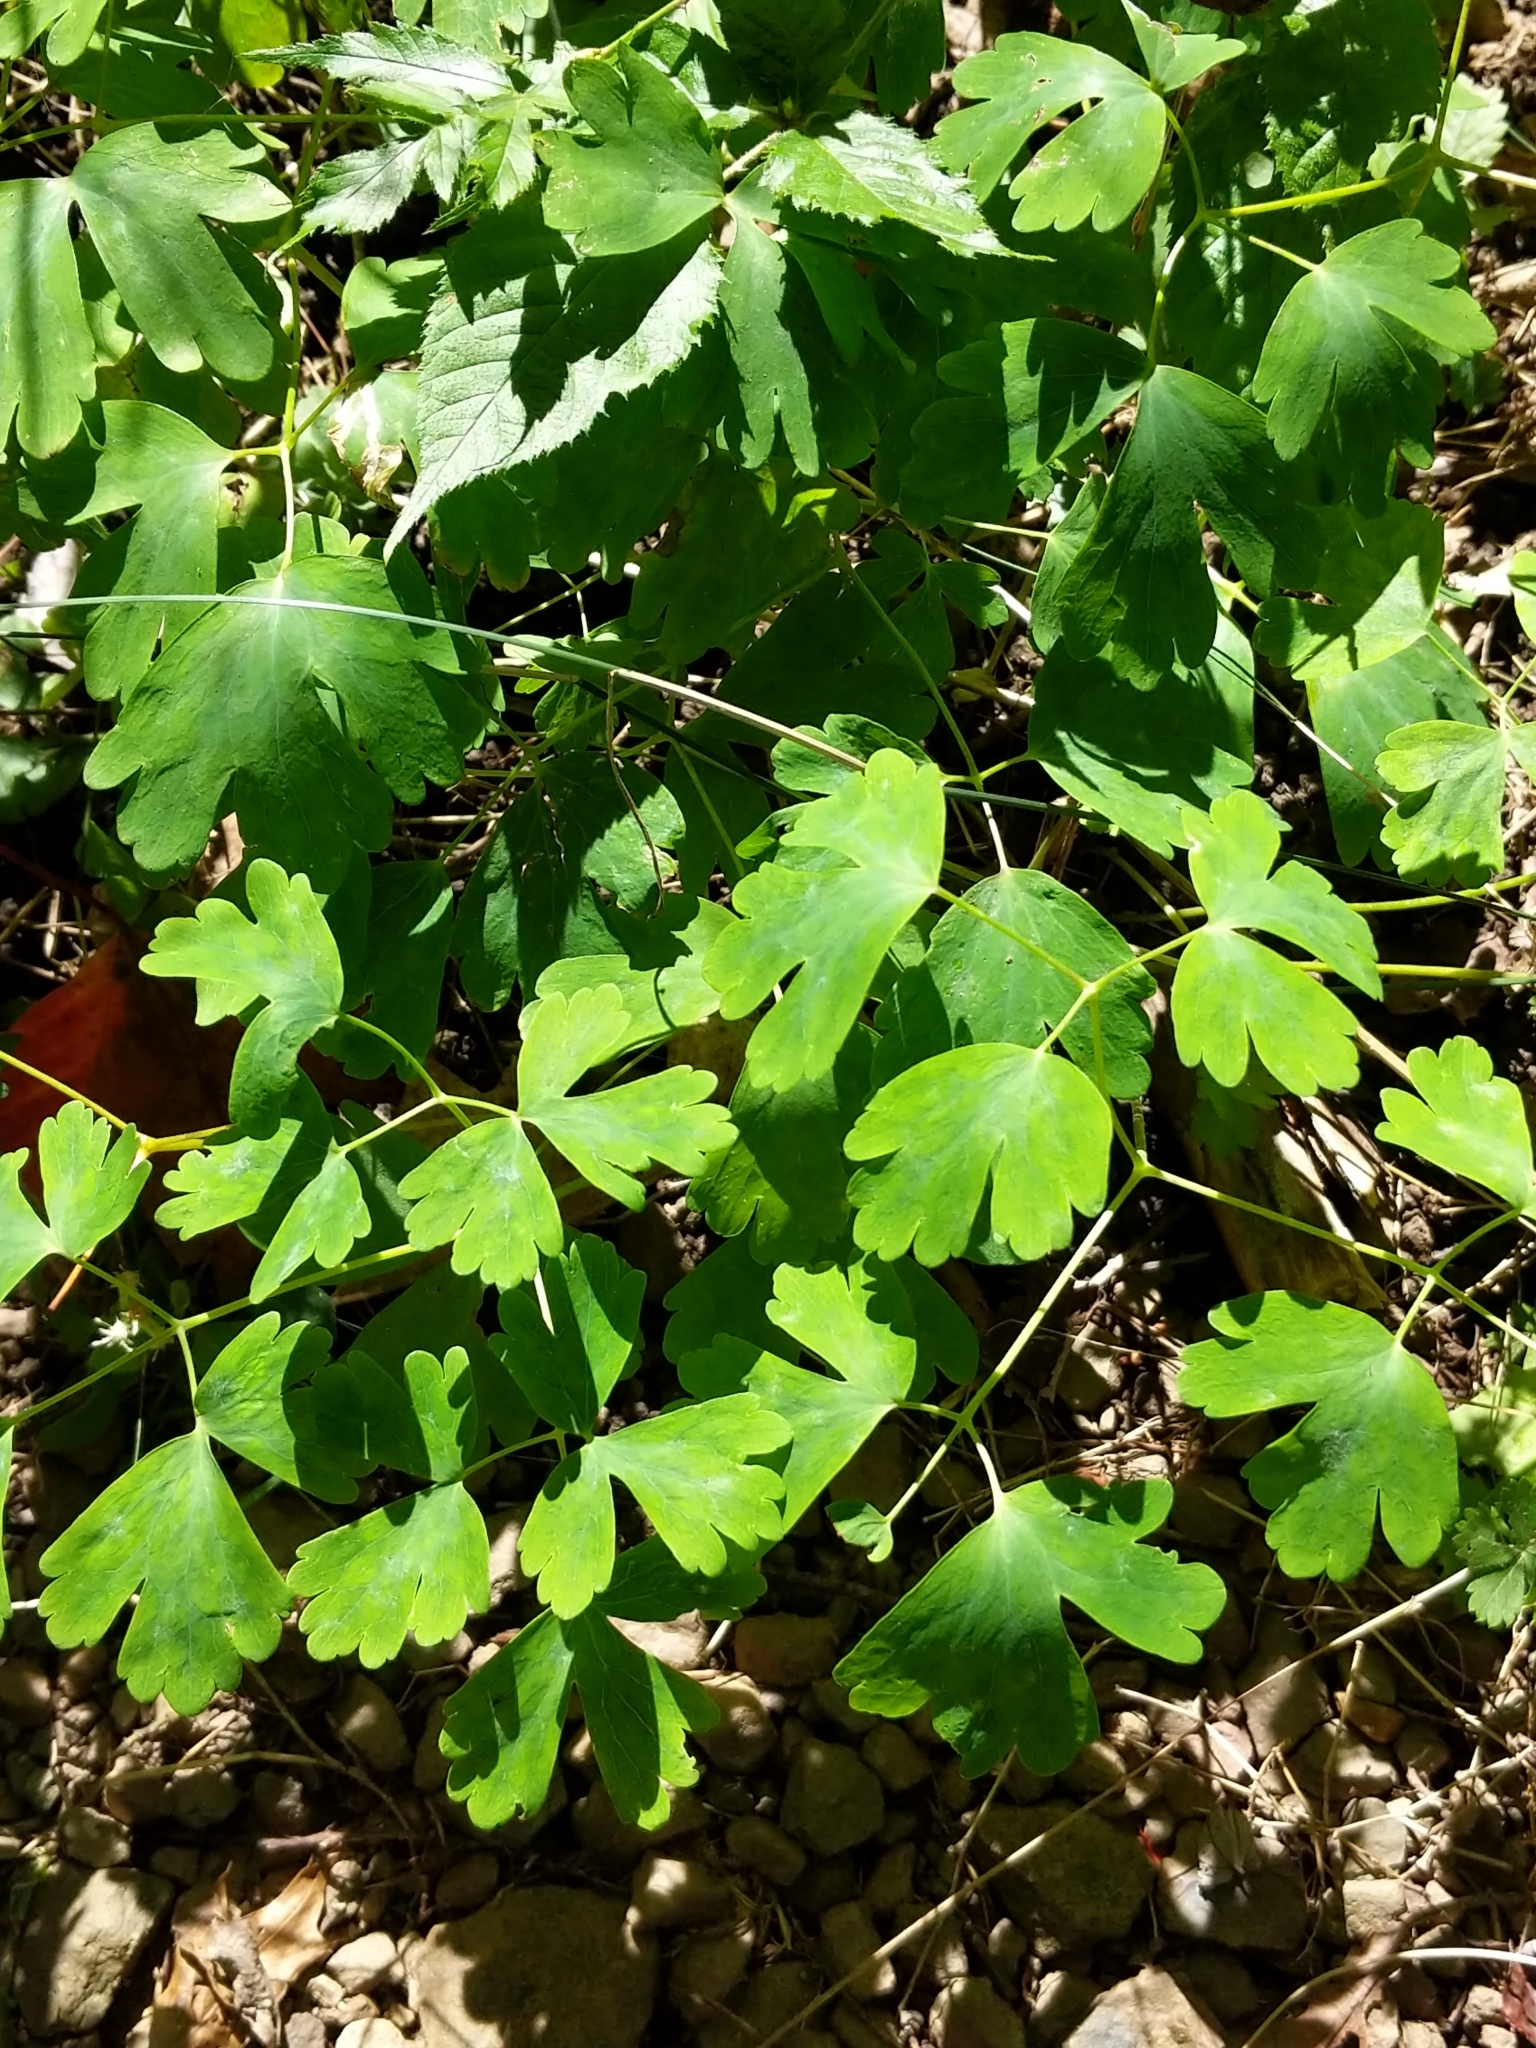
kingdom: Plantae
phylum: Tracheophyta
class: Magnoliopsida
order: Ranunculales
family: Ranunculaceae
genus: Aquilegia
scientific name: Aquilegia canadensis
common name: American columbine
